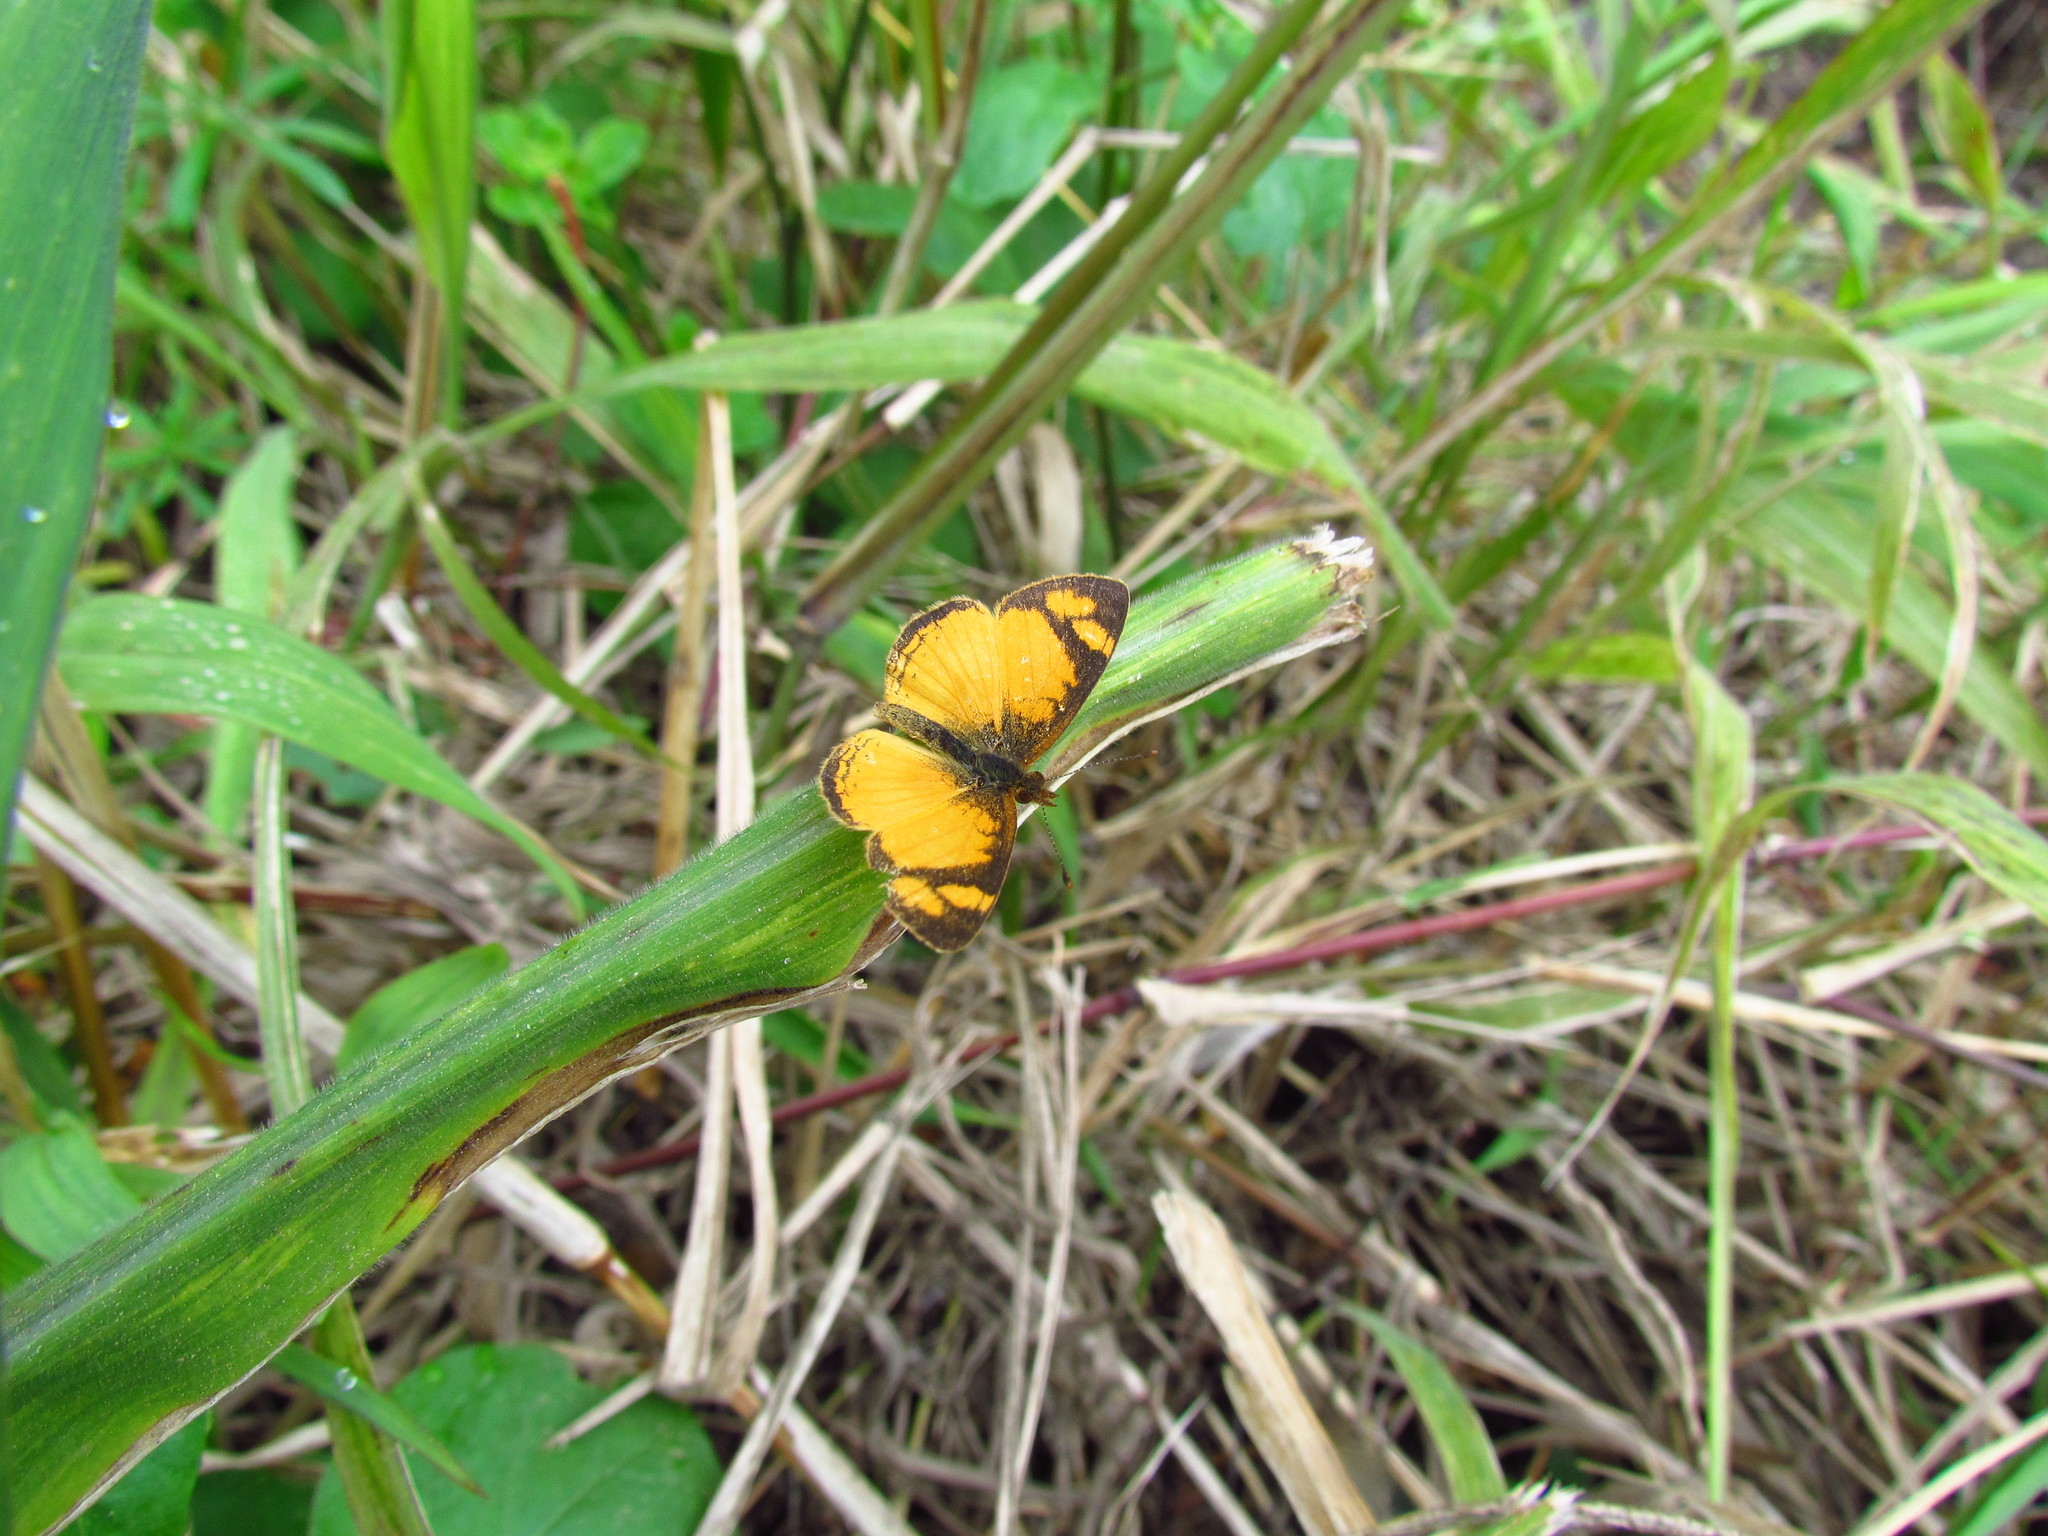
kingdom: Animalia
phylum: Arthropoda
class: Insecta
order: Lepidoptera
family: Nymphalidae
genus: Tegosa
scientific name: Tegosa claudina
